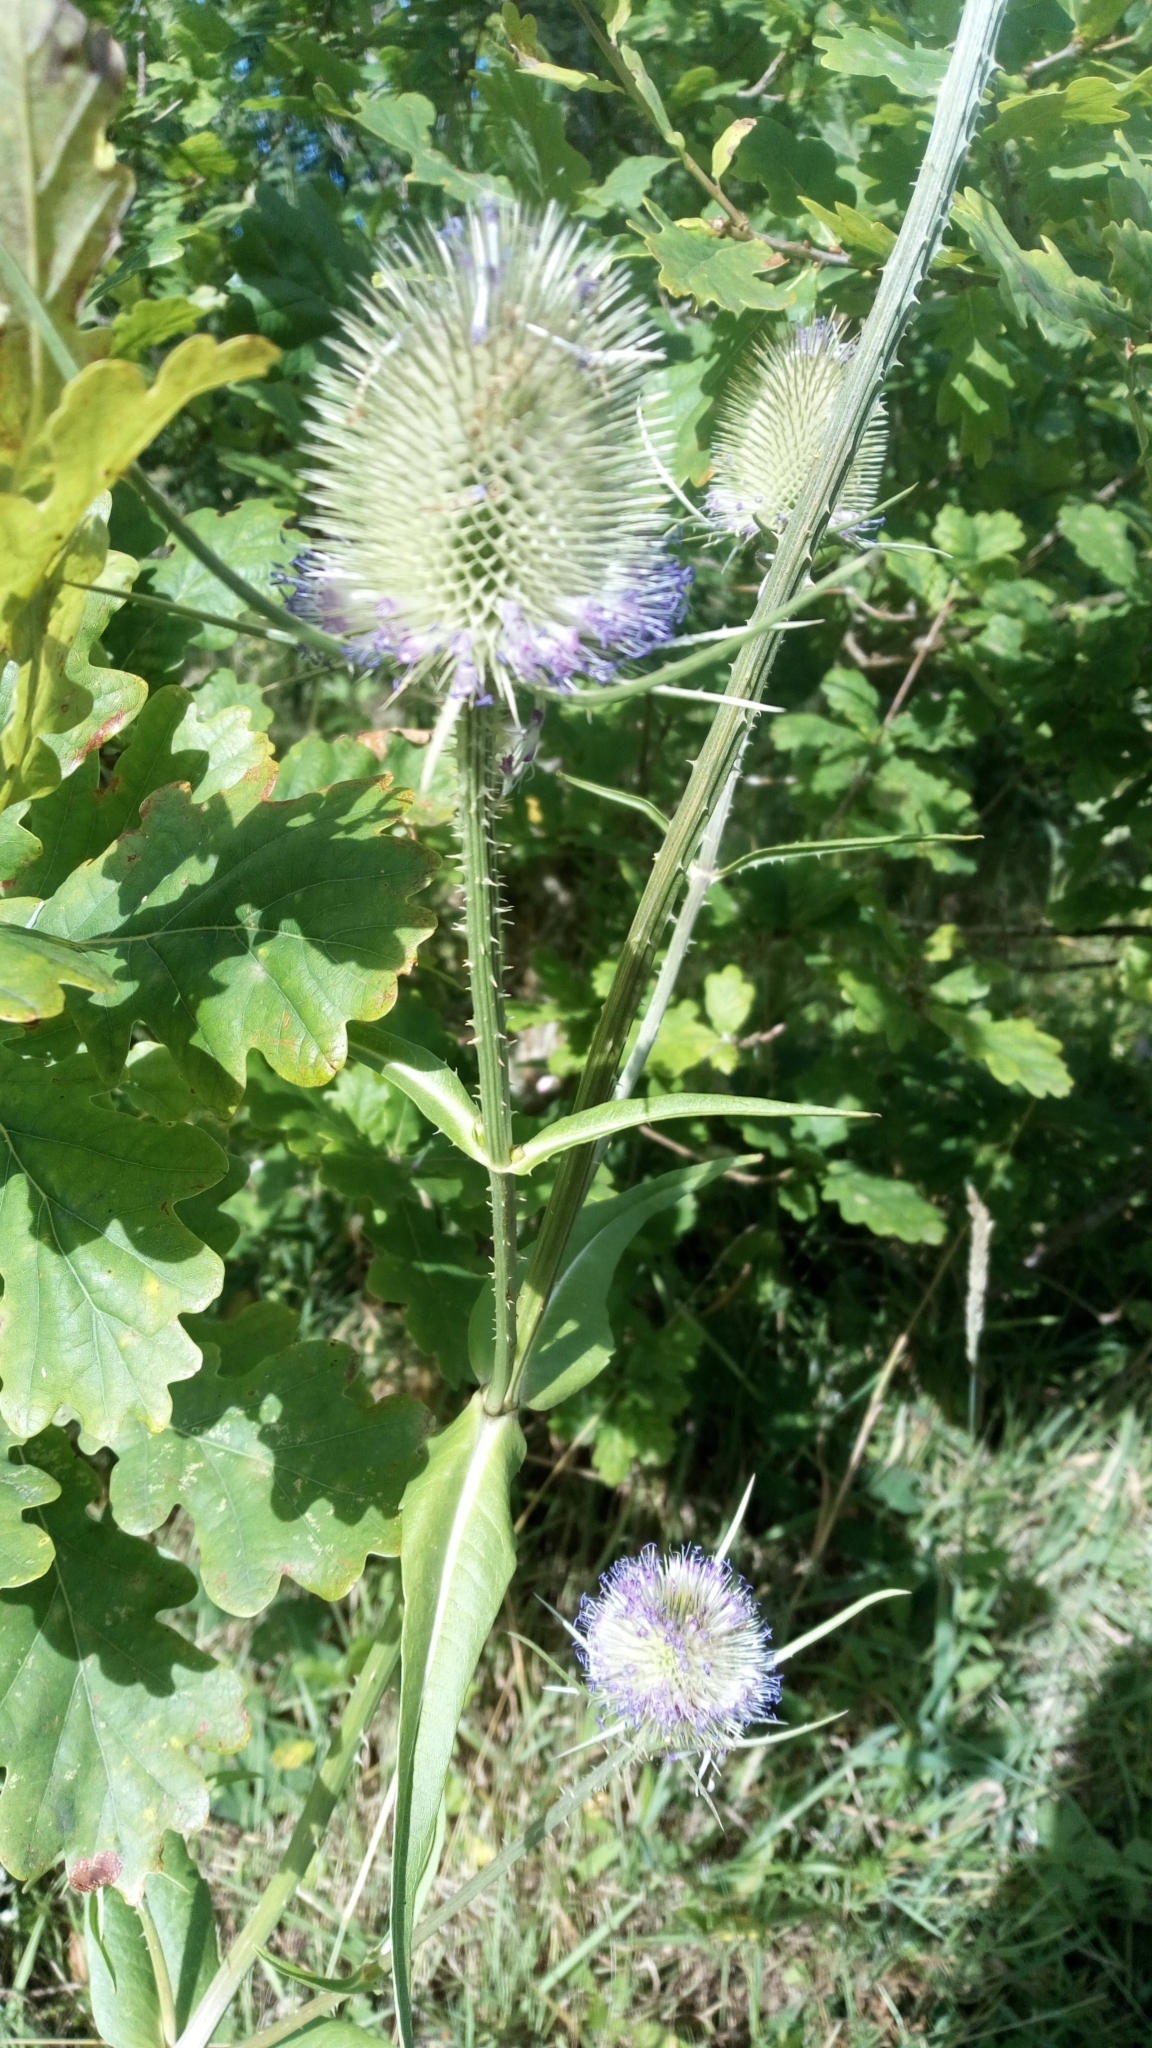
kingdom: Plantae
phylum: Tracheophyta
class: Magnoliopsida
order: Dipsacales
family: Caprifoliaceae
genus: Dipsacus
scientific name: Dipsacus fullonum
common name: Teasel
